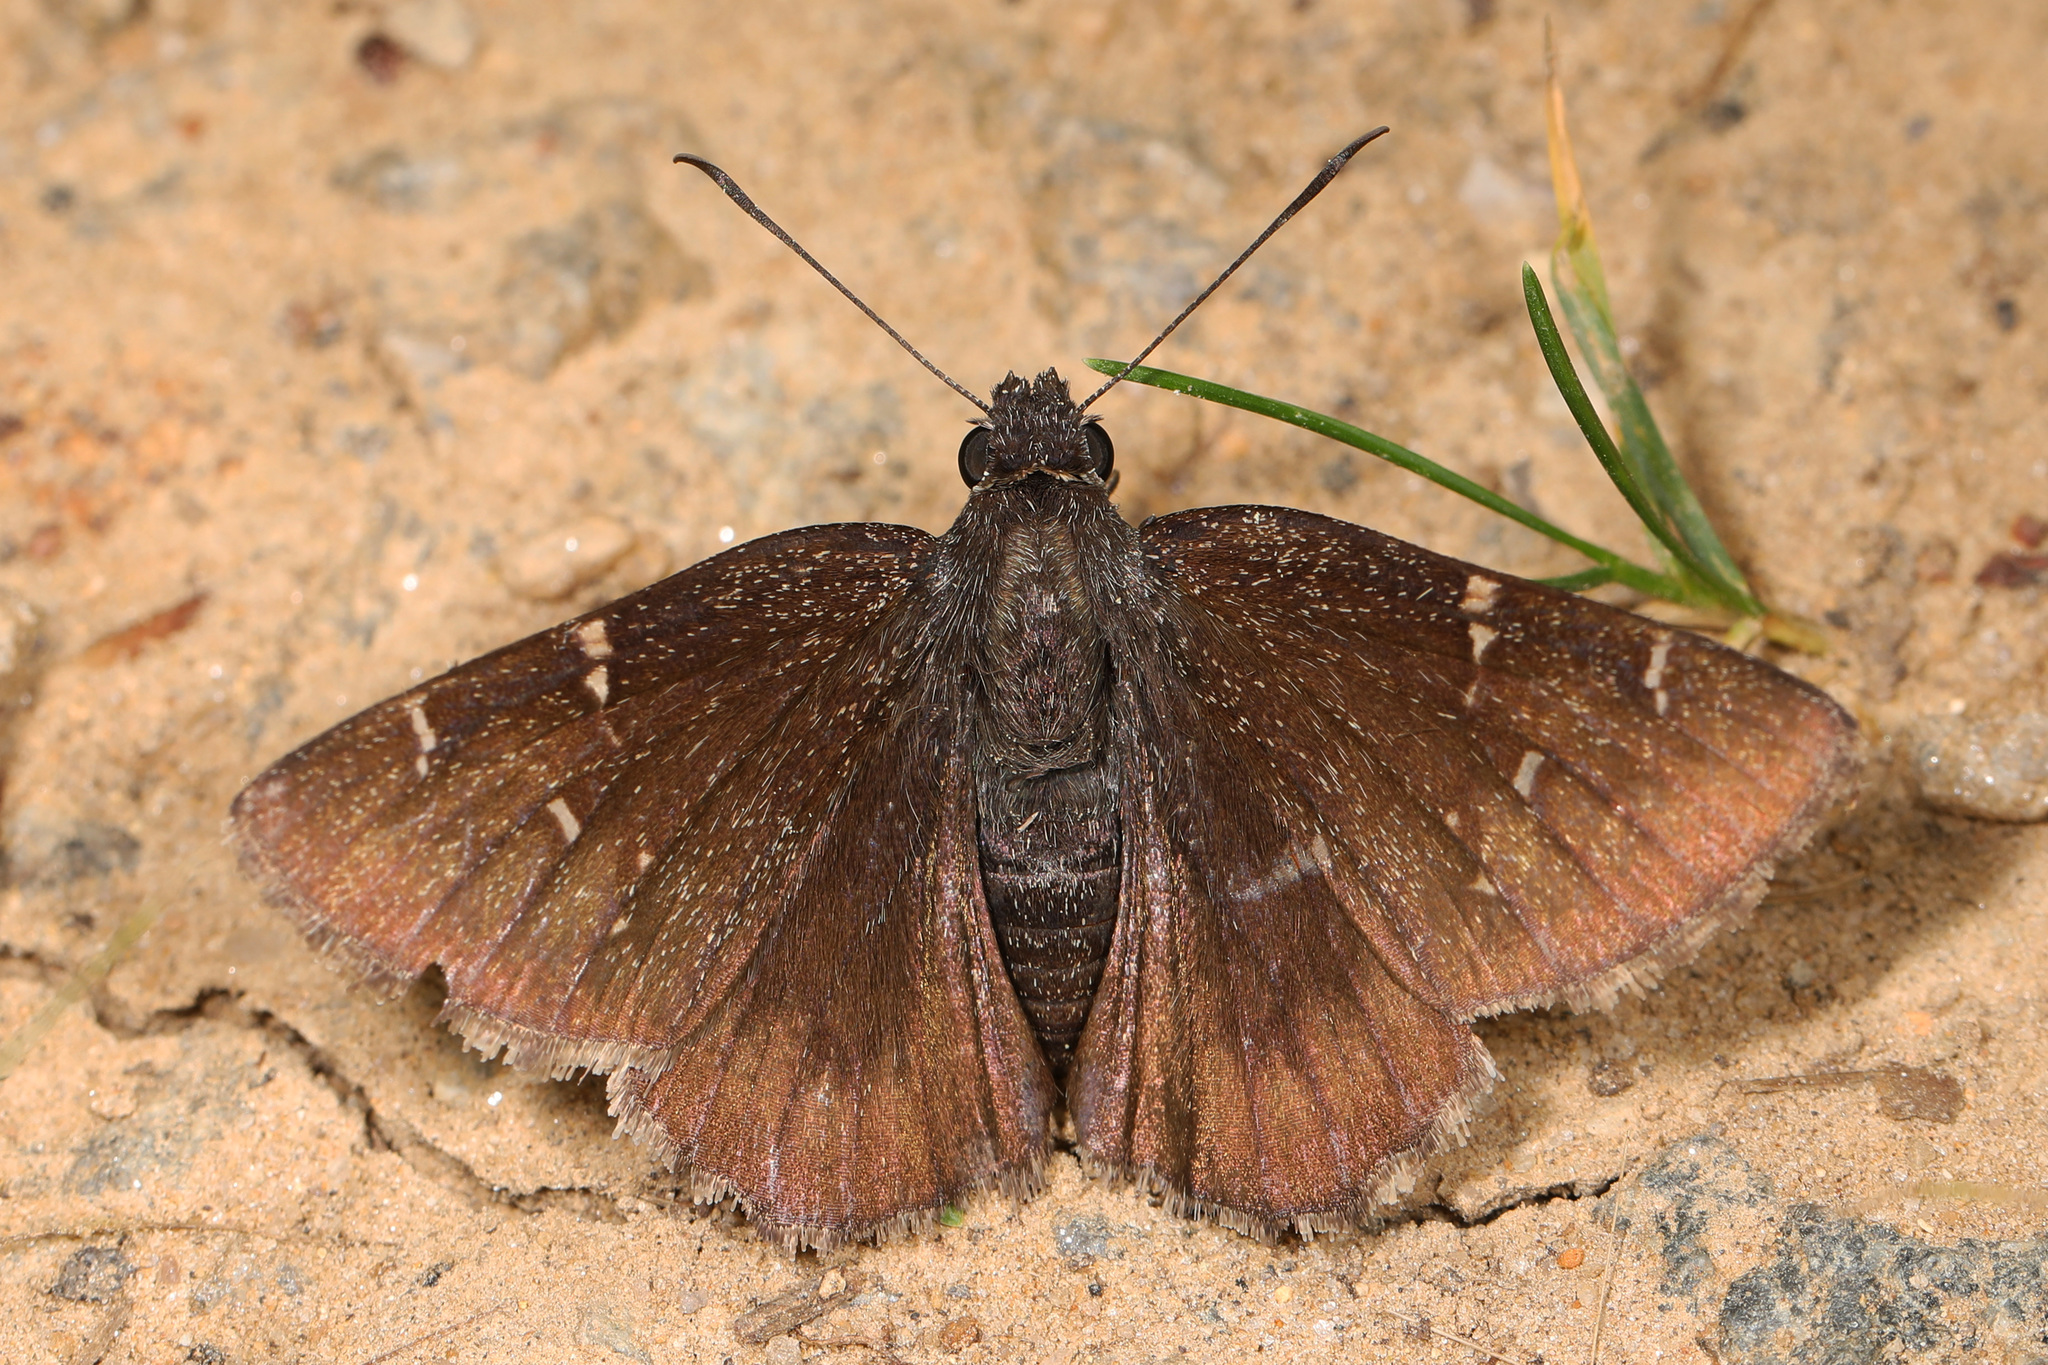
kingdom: Animalia
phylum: Arthropoda
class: Insecta
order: Lepidoptera
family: Hesperiidae
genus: Thorybes
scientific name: Thorybes pylades
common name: Northern cloudywing
